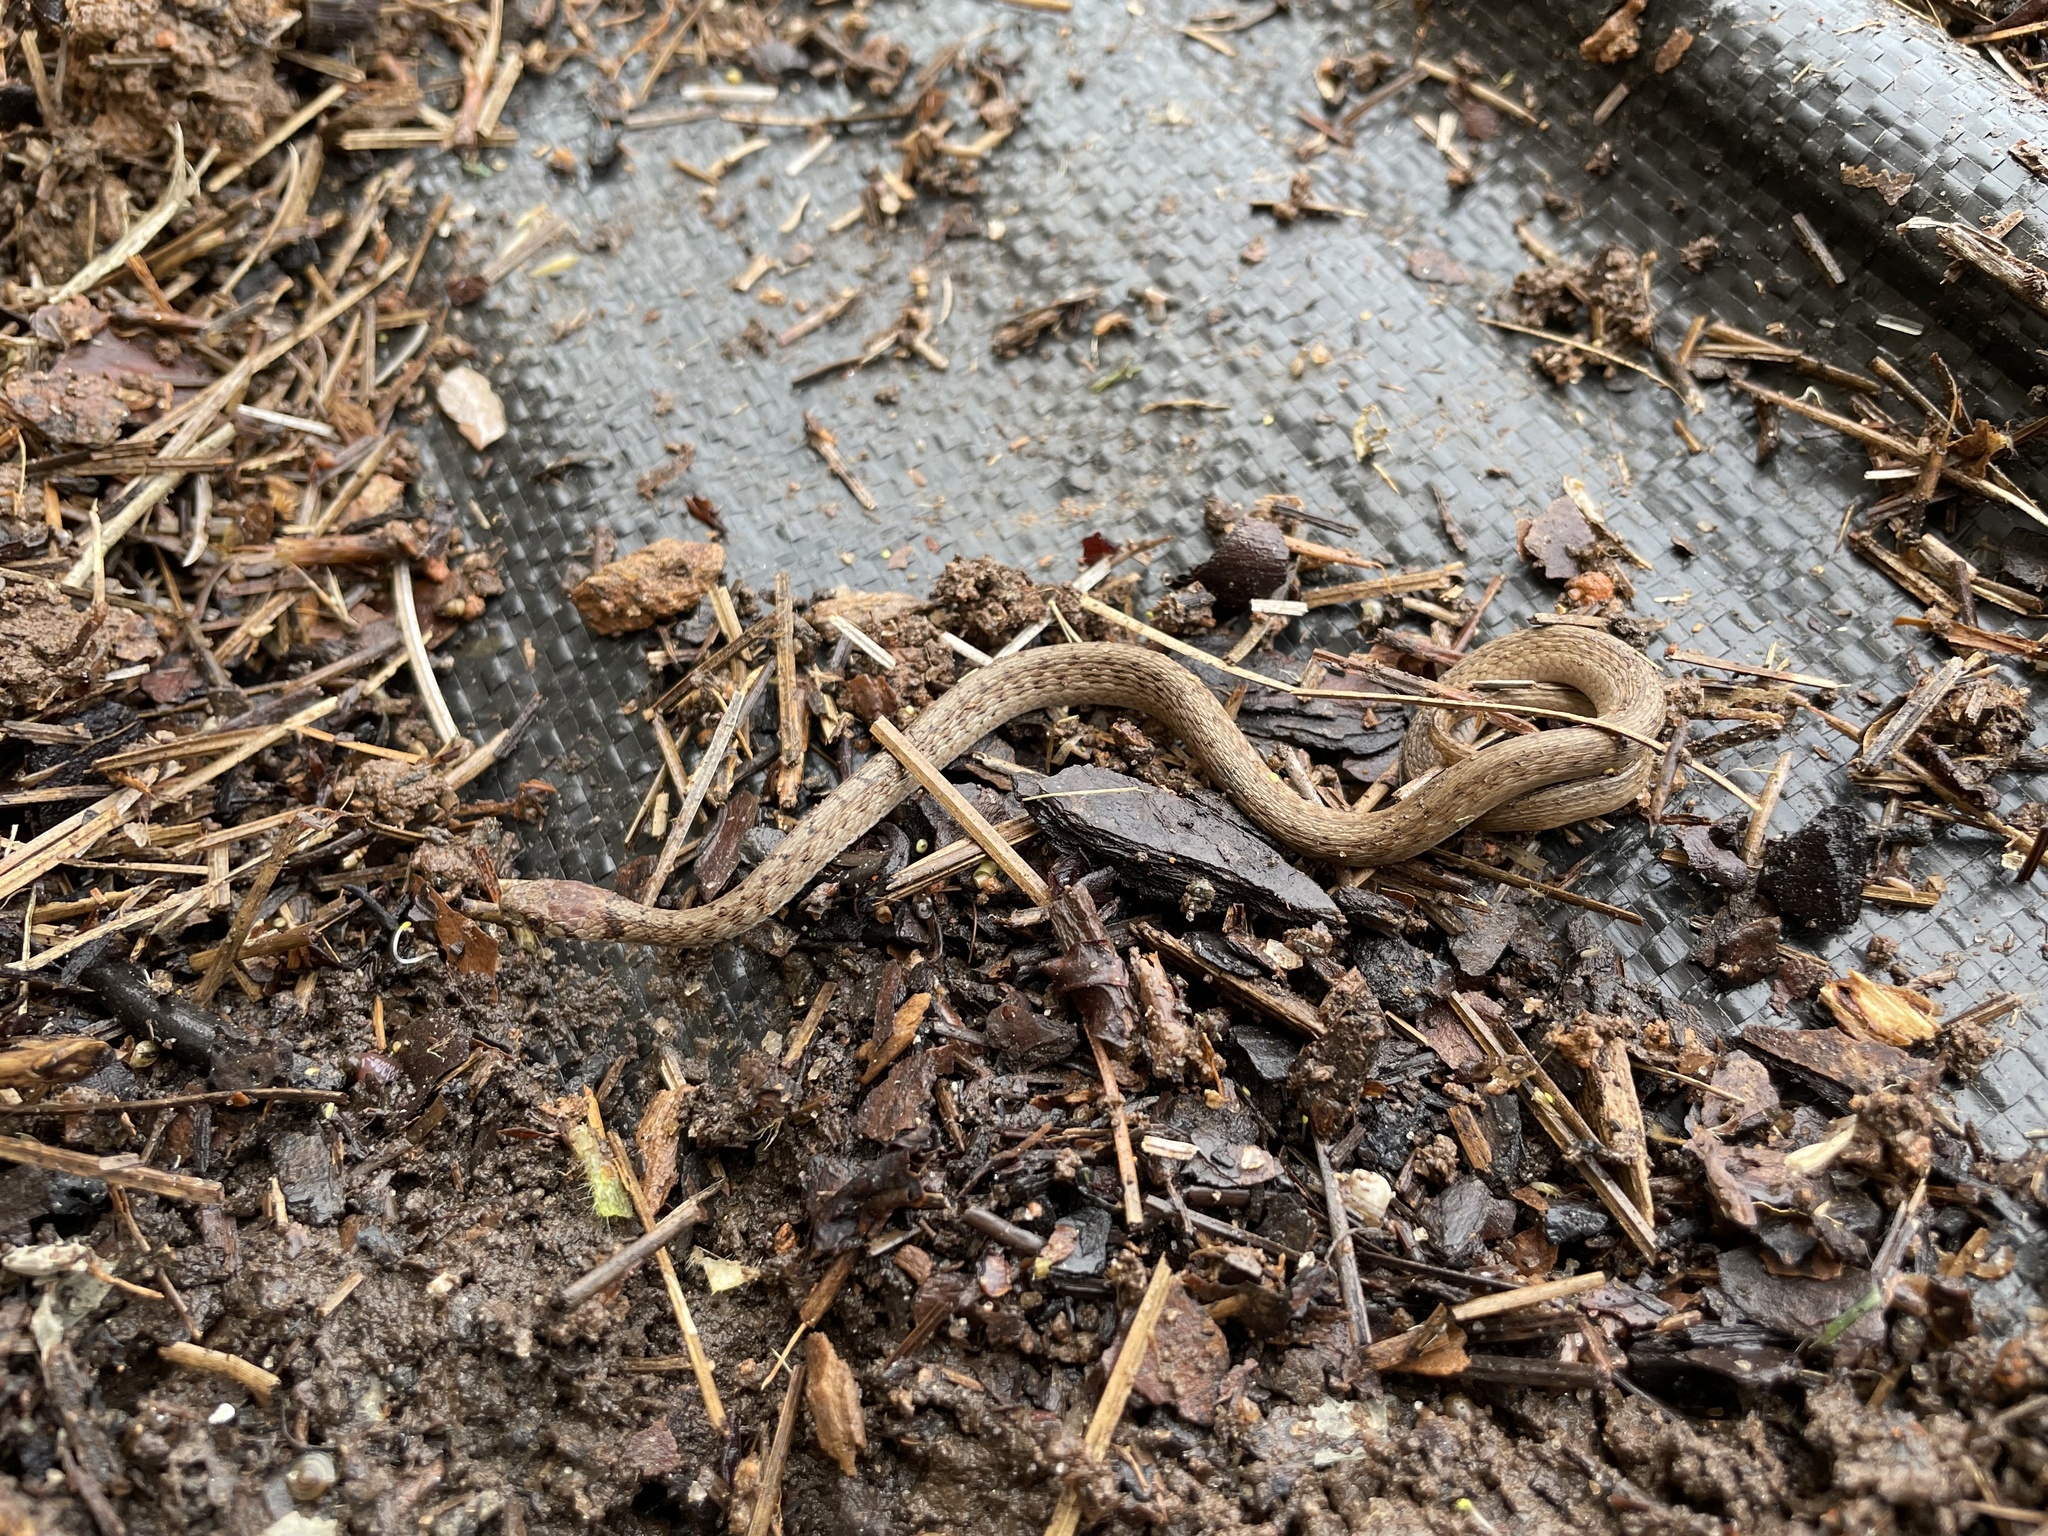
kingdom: Animalia
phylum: Chordata
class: Squamata
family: Colubridae
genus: Storeria
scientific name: Storeria dekayi
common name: (dekay’s) brown snake
